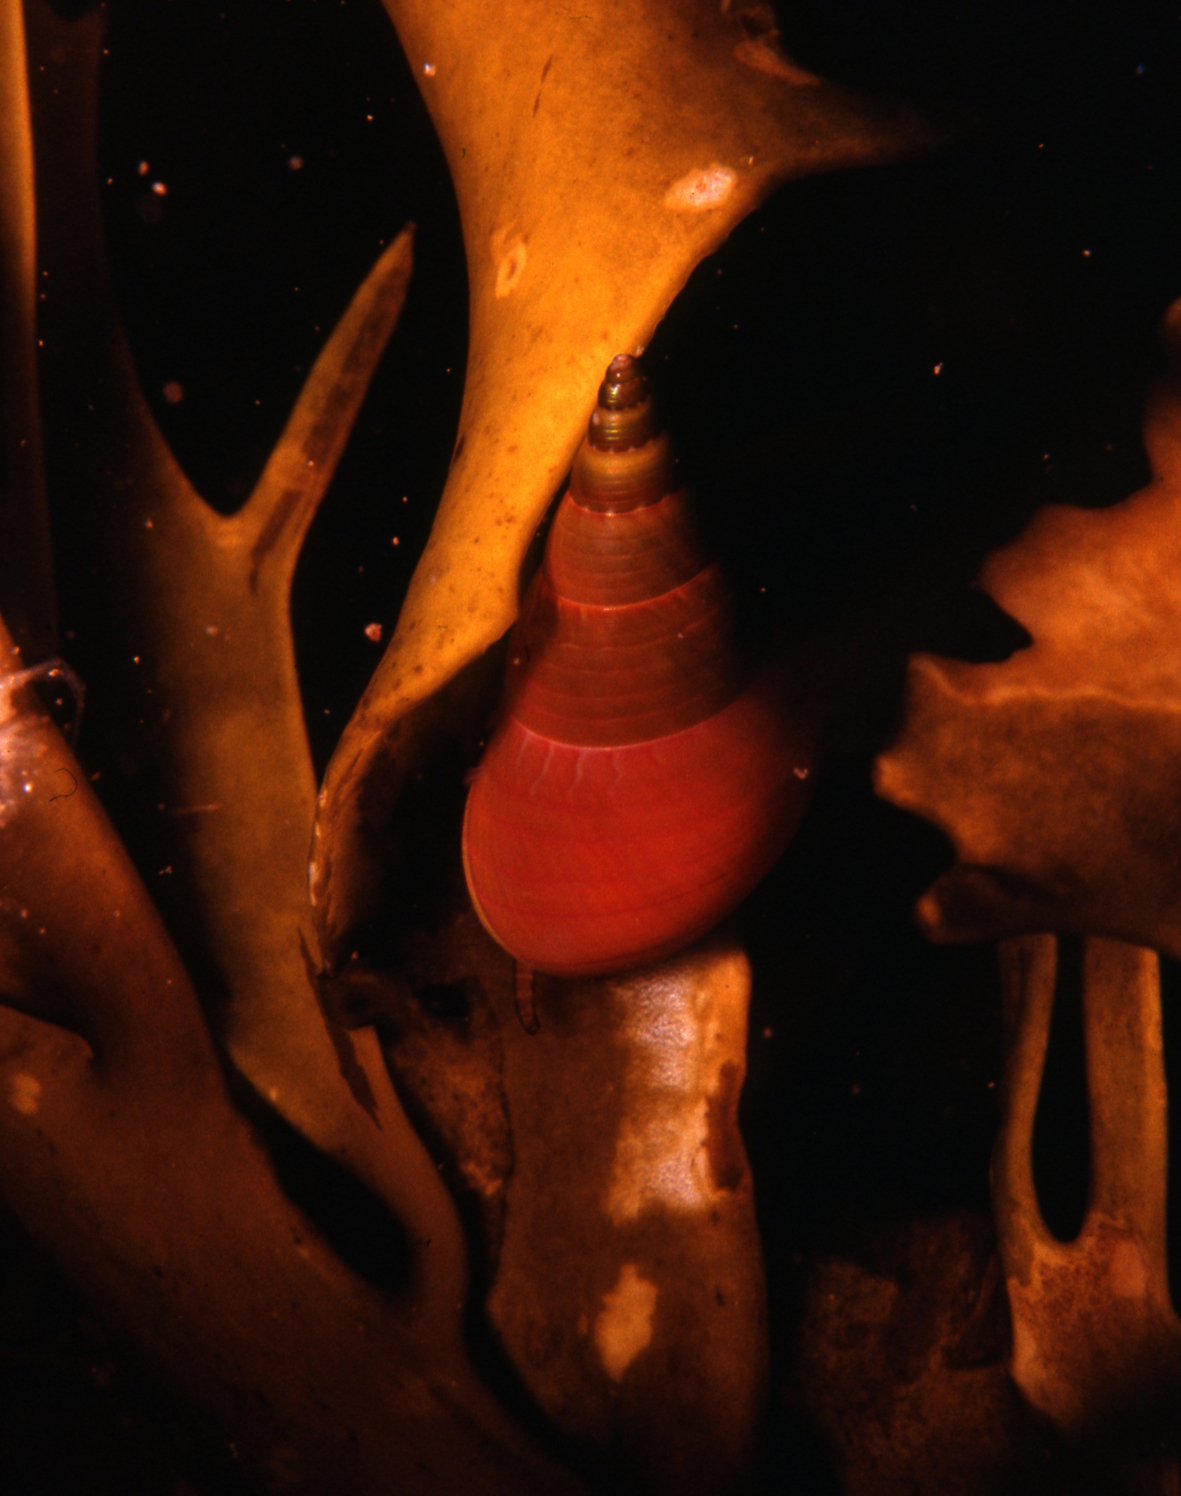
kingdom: Animalia
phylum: Mollusca
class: Gastropoda
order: Trochida
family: Trochidae
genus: Phasianotrochus
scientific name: Phasianotrochus eximius
